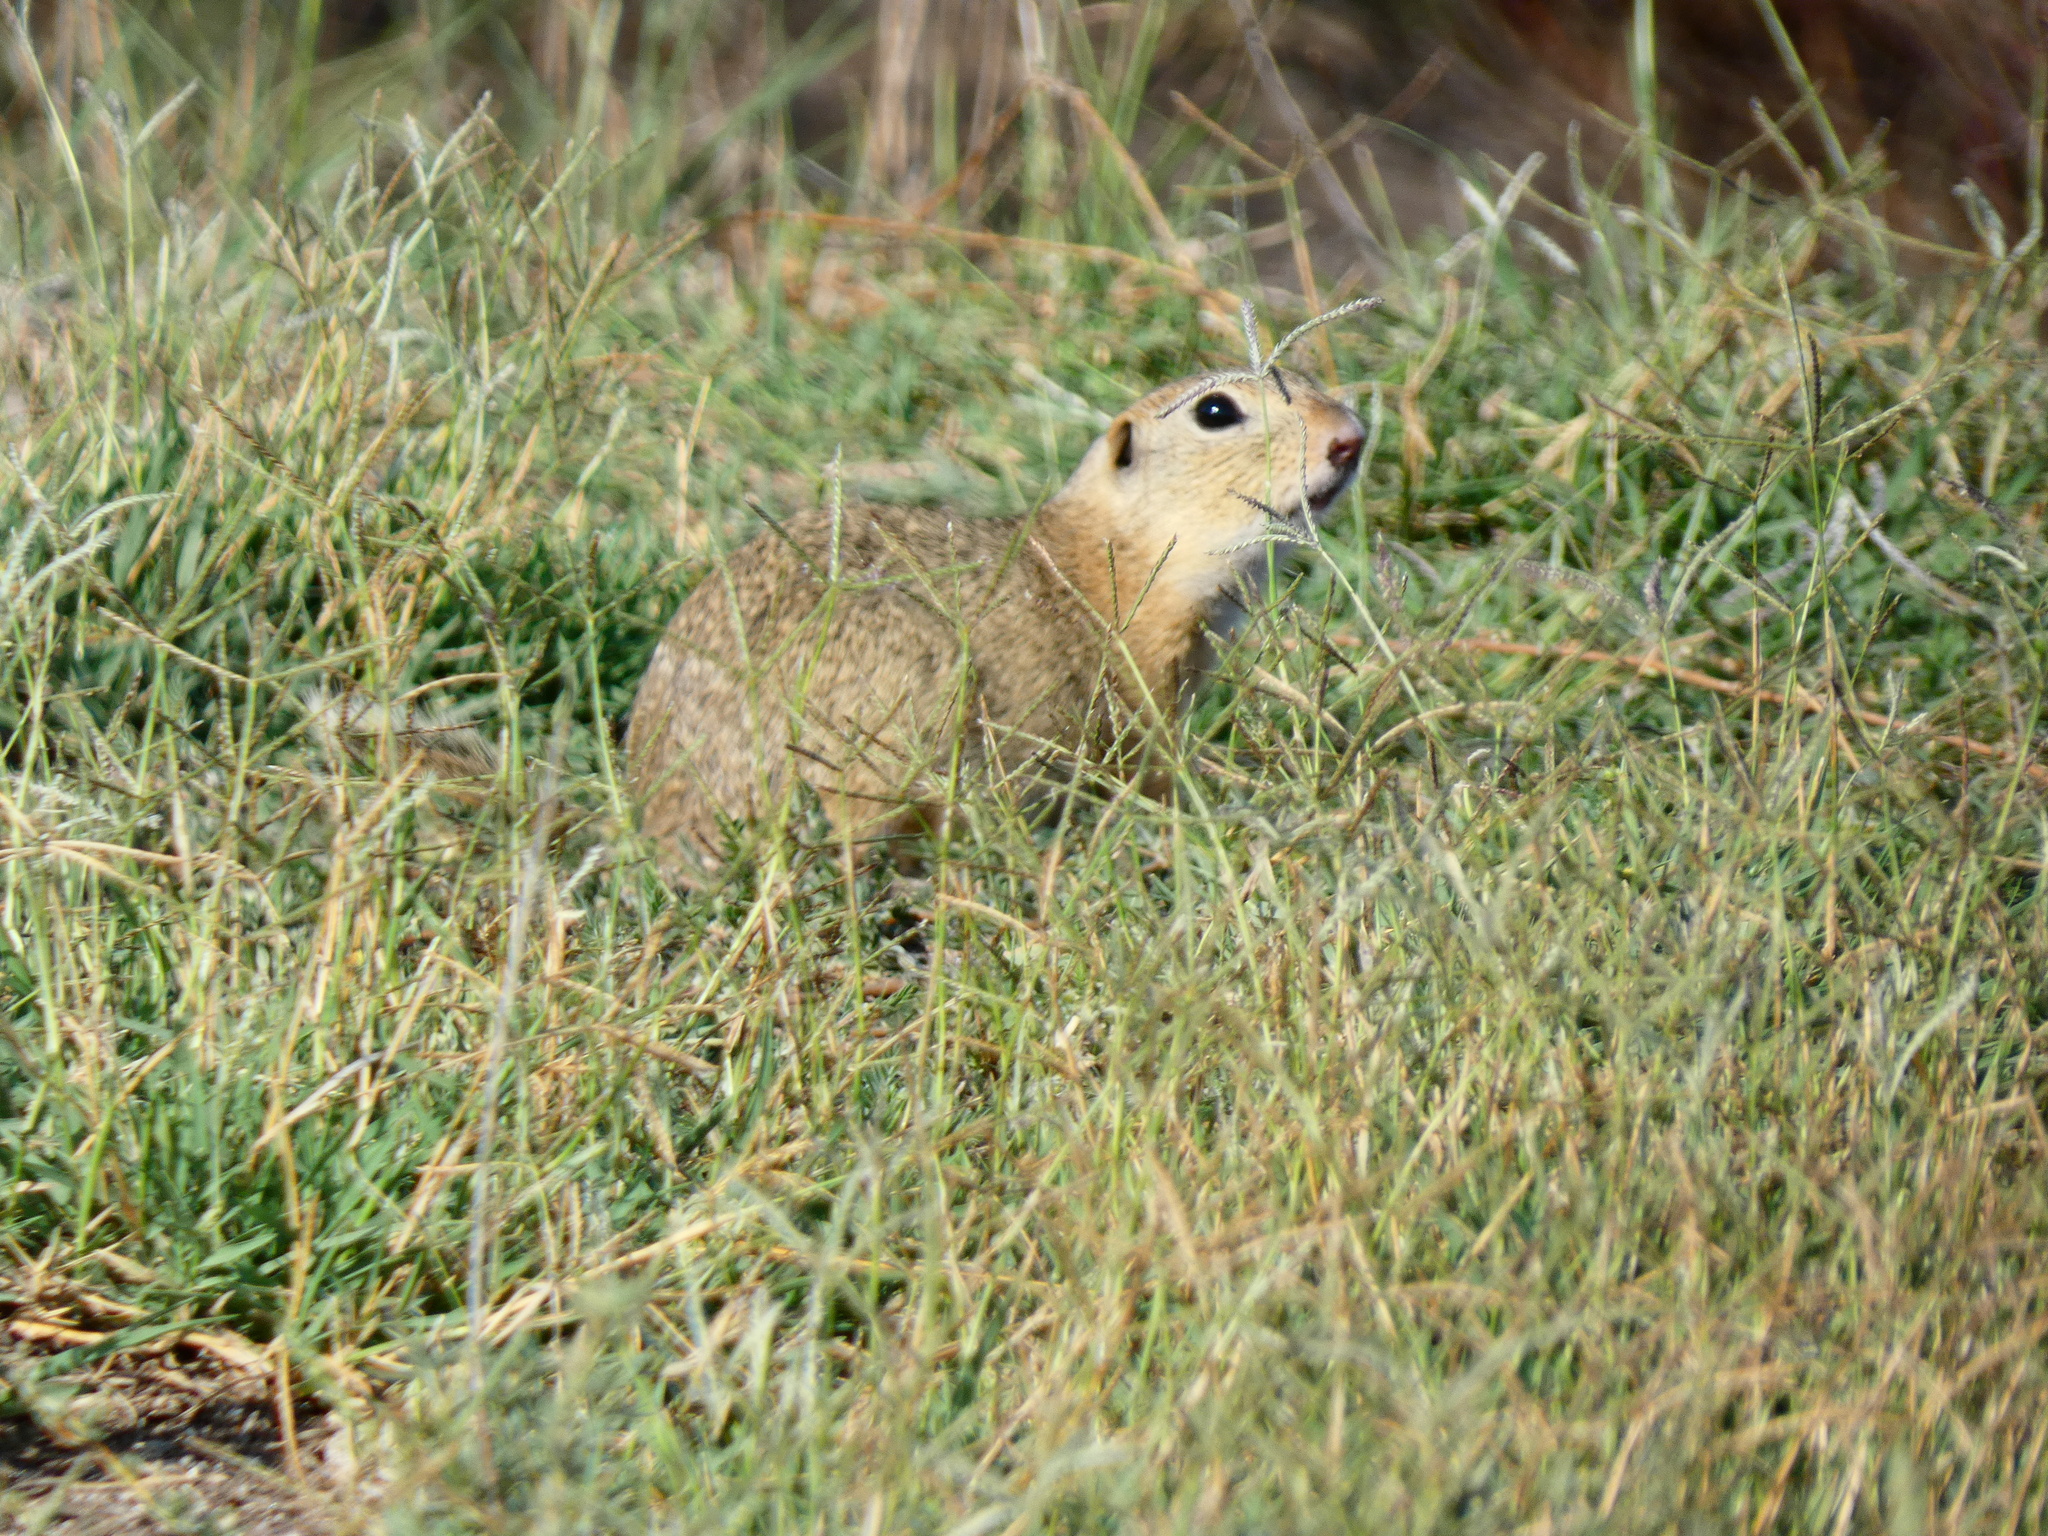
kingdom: Animalia
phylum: Chordata
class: Mammalia
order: Rodentia
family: Sciuridae
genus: Spermophilus
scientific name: Spermophilus citellus
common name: European ground squirrel
